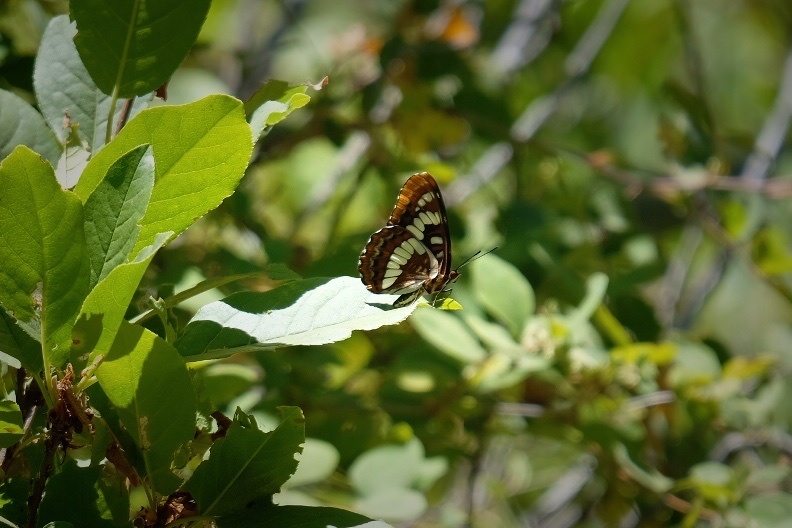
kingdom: Animalia
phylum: Arthropoda
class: Insecta
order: Lepidoptera
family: Nymphalidae
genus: Limenitis
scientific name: Limenitis lorquini
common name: Lorquin's admiral
